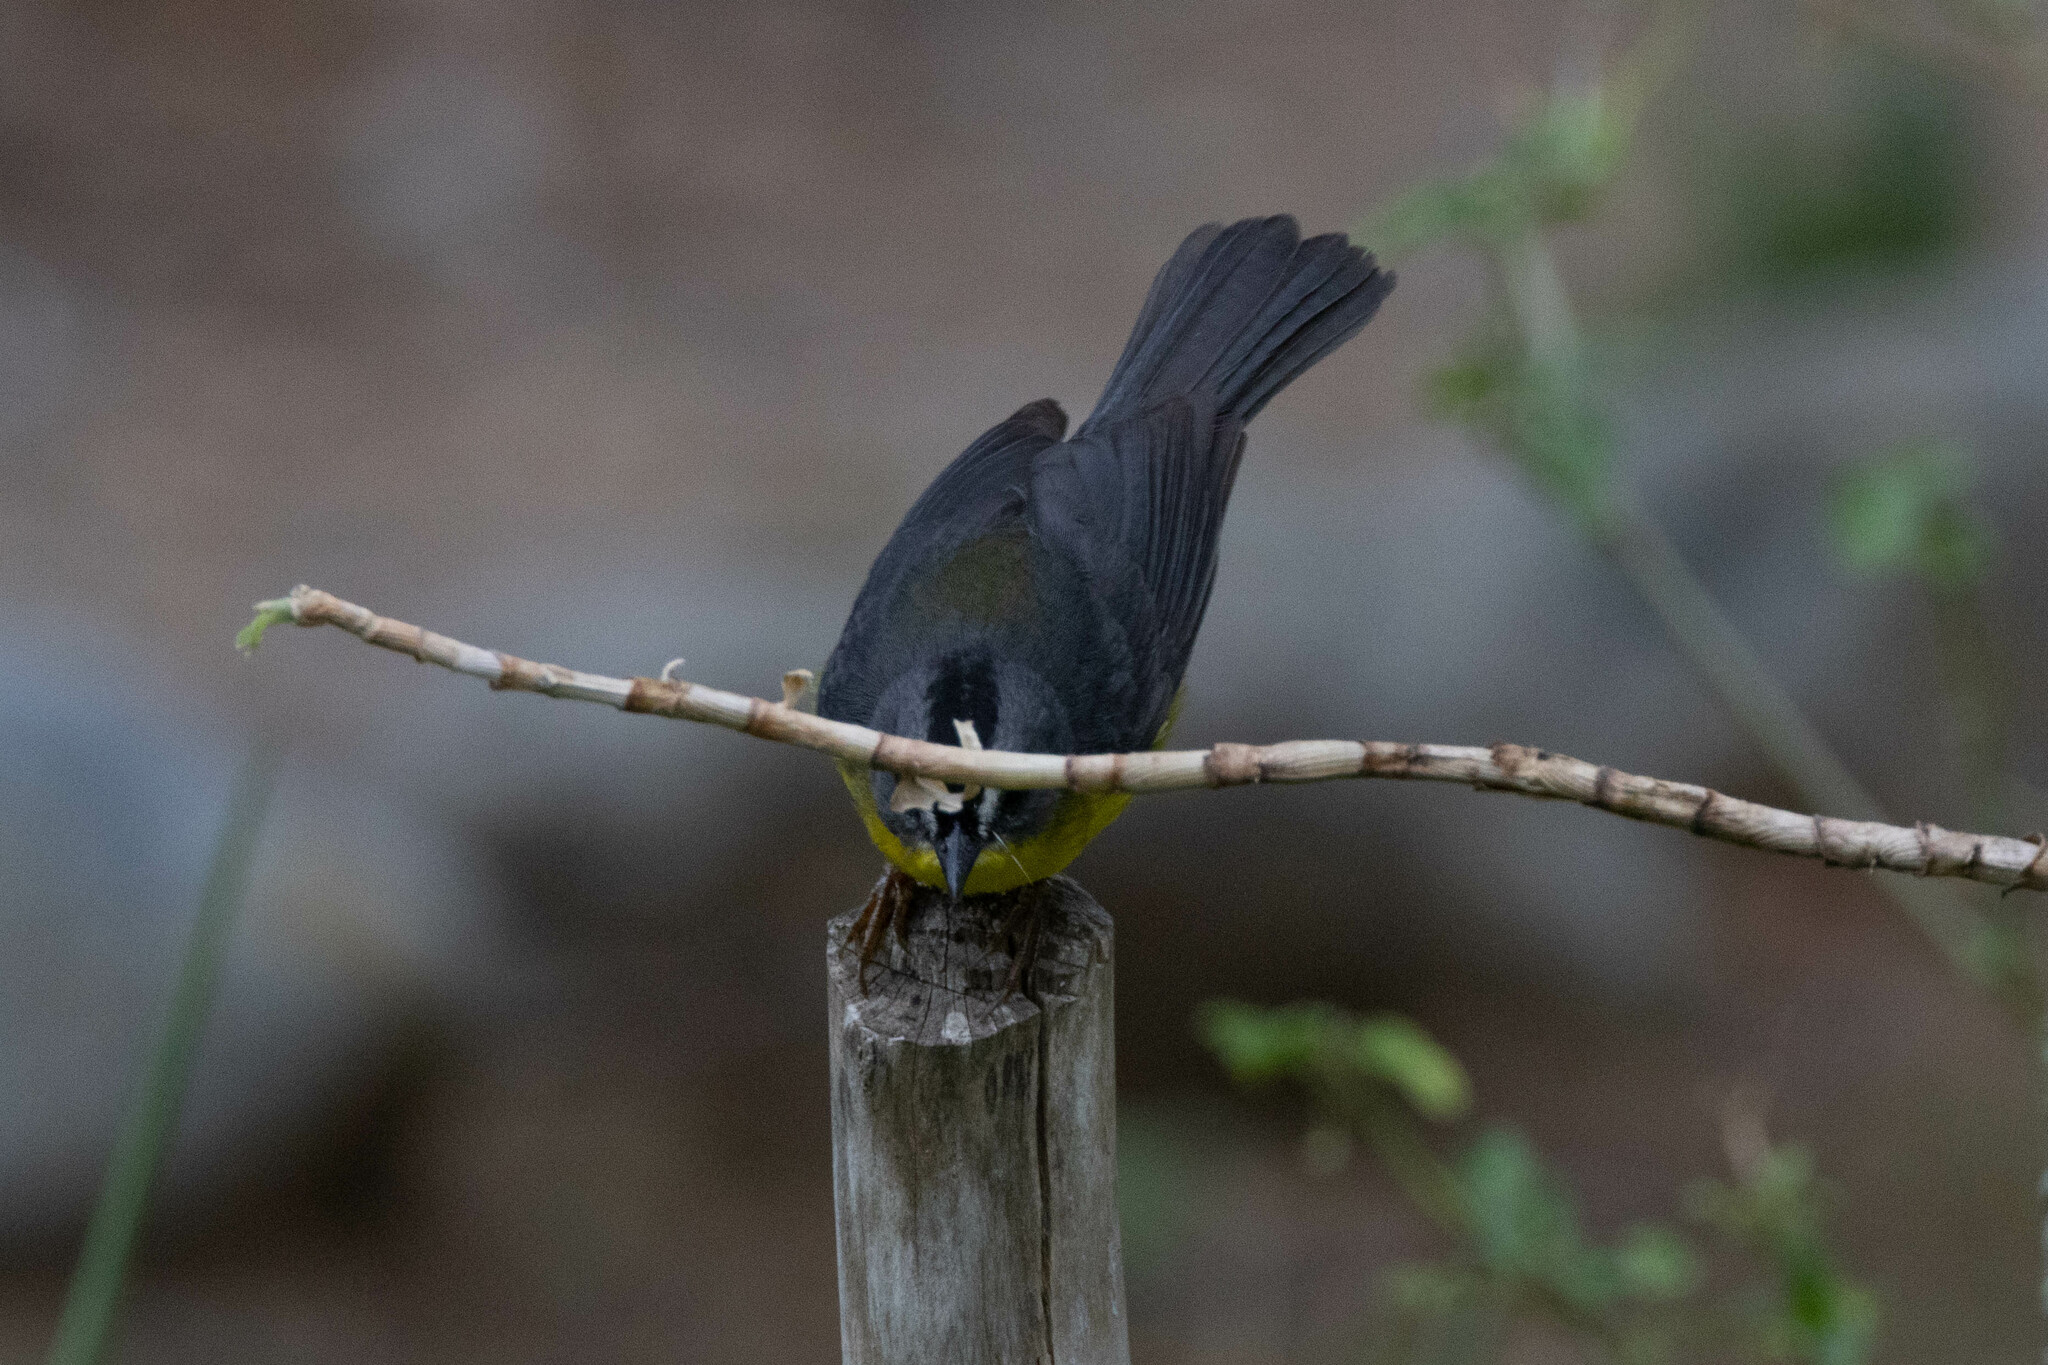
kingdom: Animalia
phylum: Chordata
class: Aves
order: Passeriformes
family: Parulidae
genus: Myiothlypis
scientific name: Myiothlypis fraseri
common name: Grey-and-gold warbler
